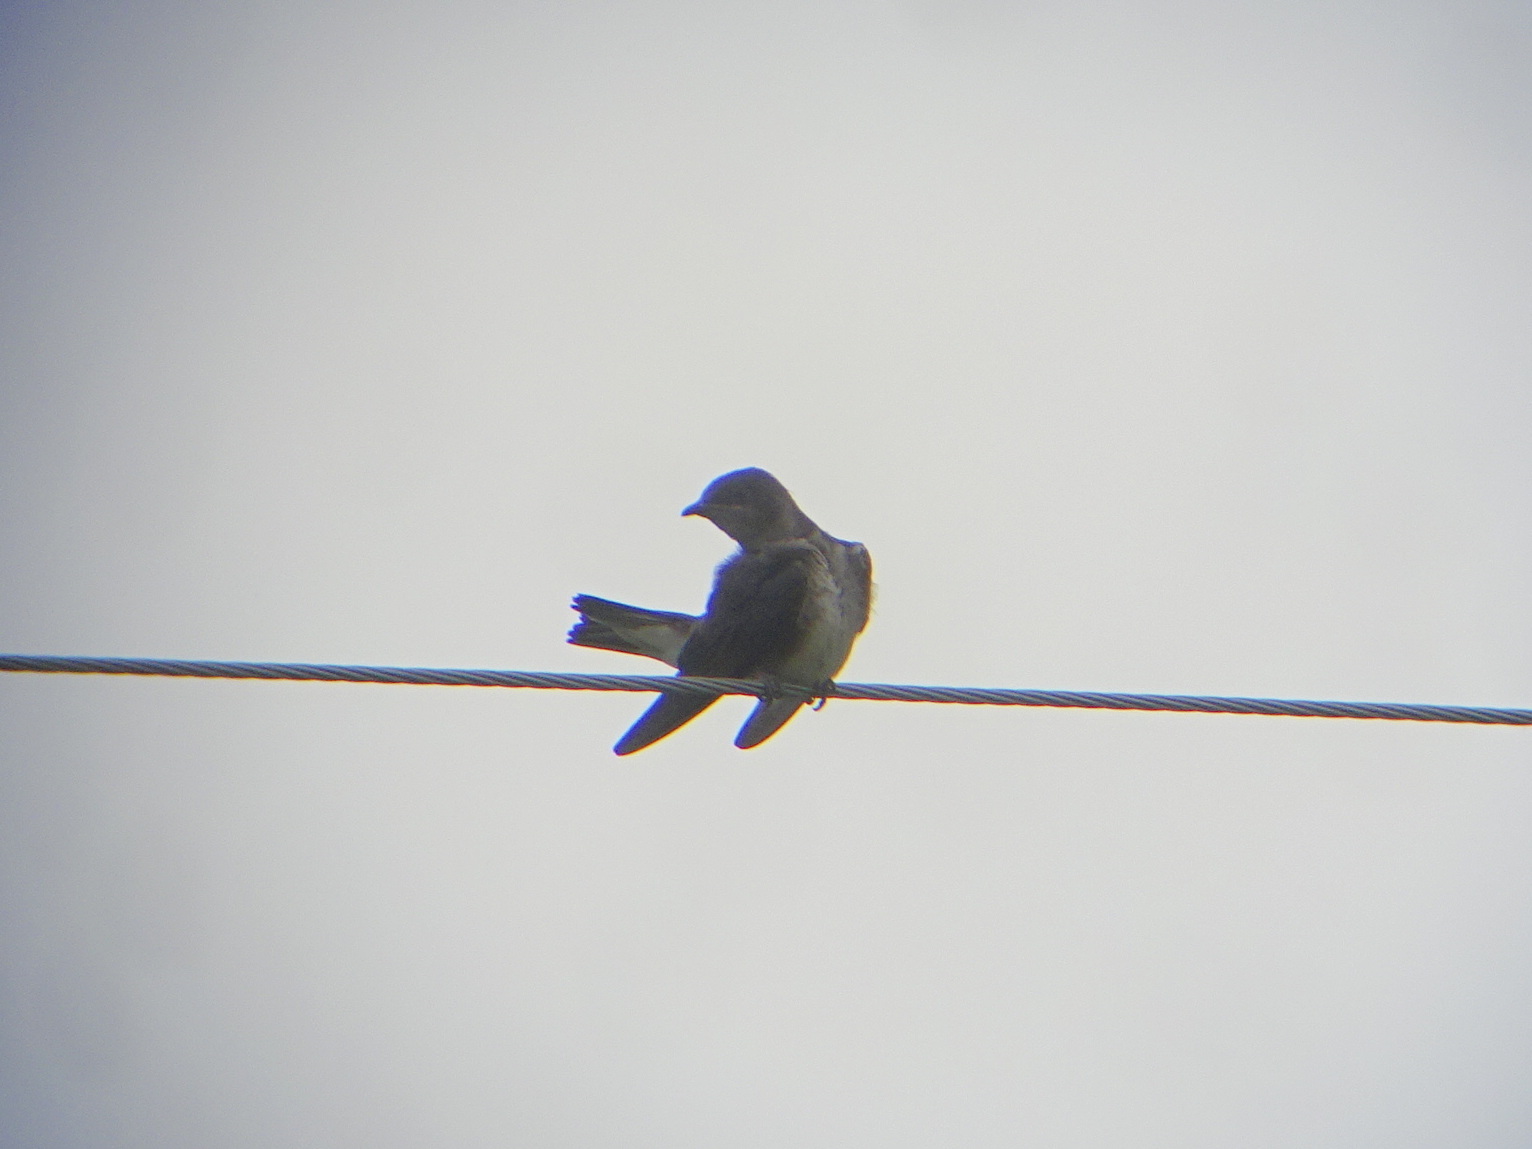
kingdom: Animalia
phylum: Chordata
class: Aves
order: Passeriformes
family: Hirundinidae
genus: Progne
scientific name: Progne subis
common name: Purple martin
